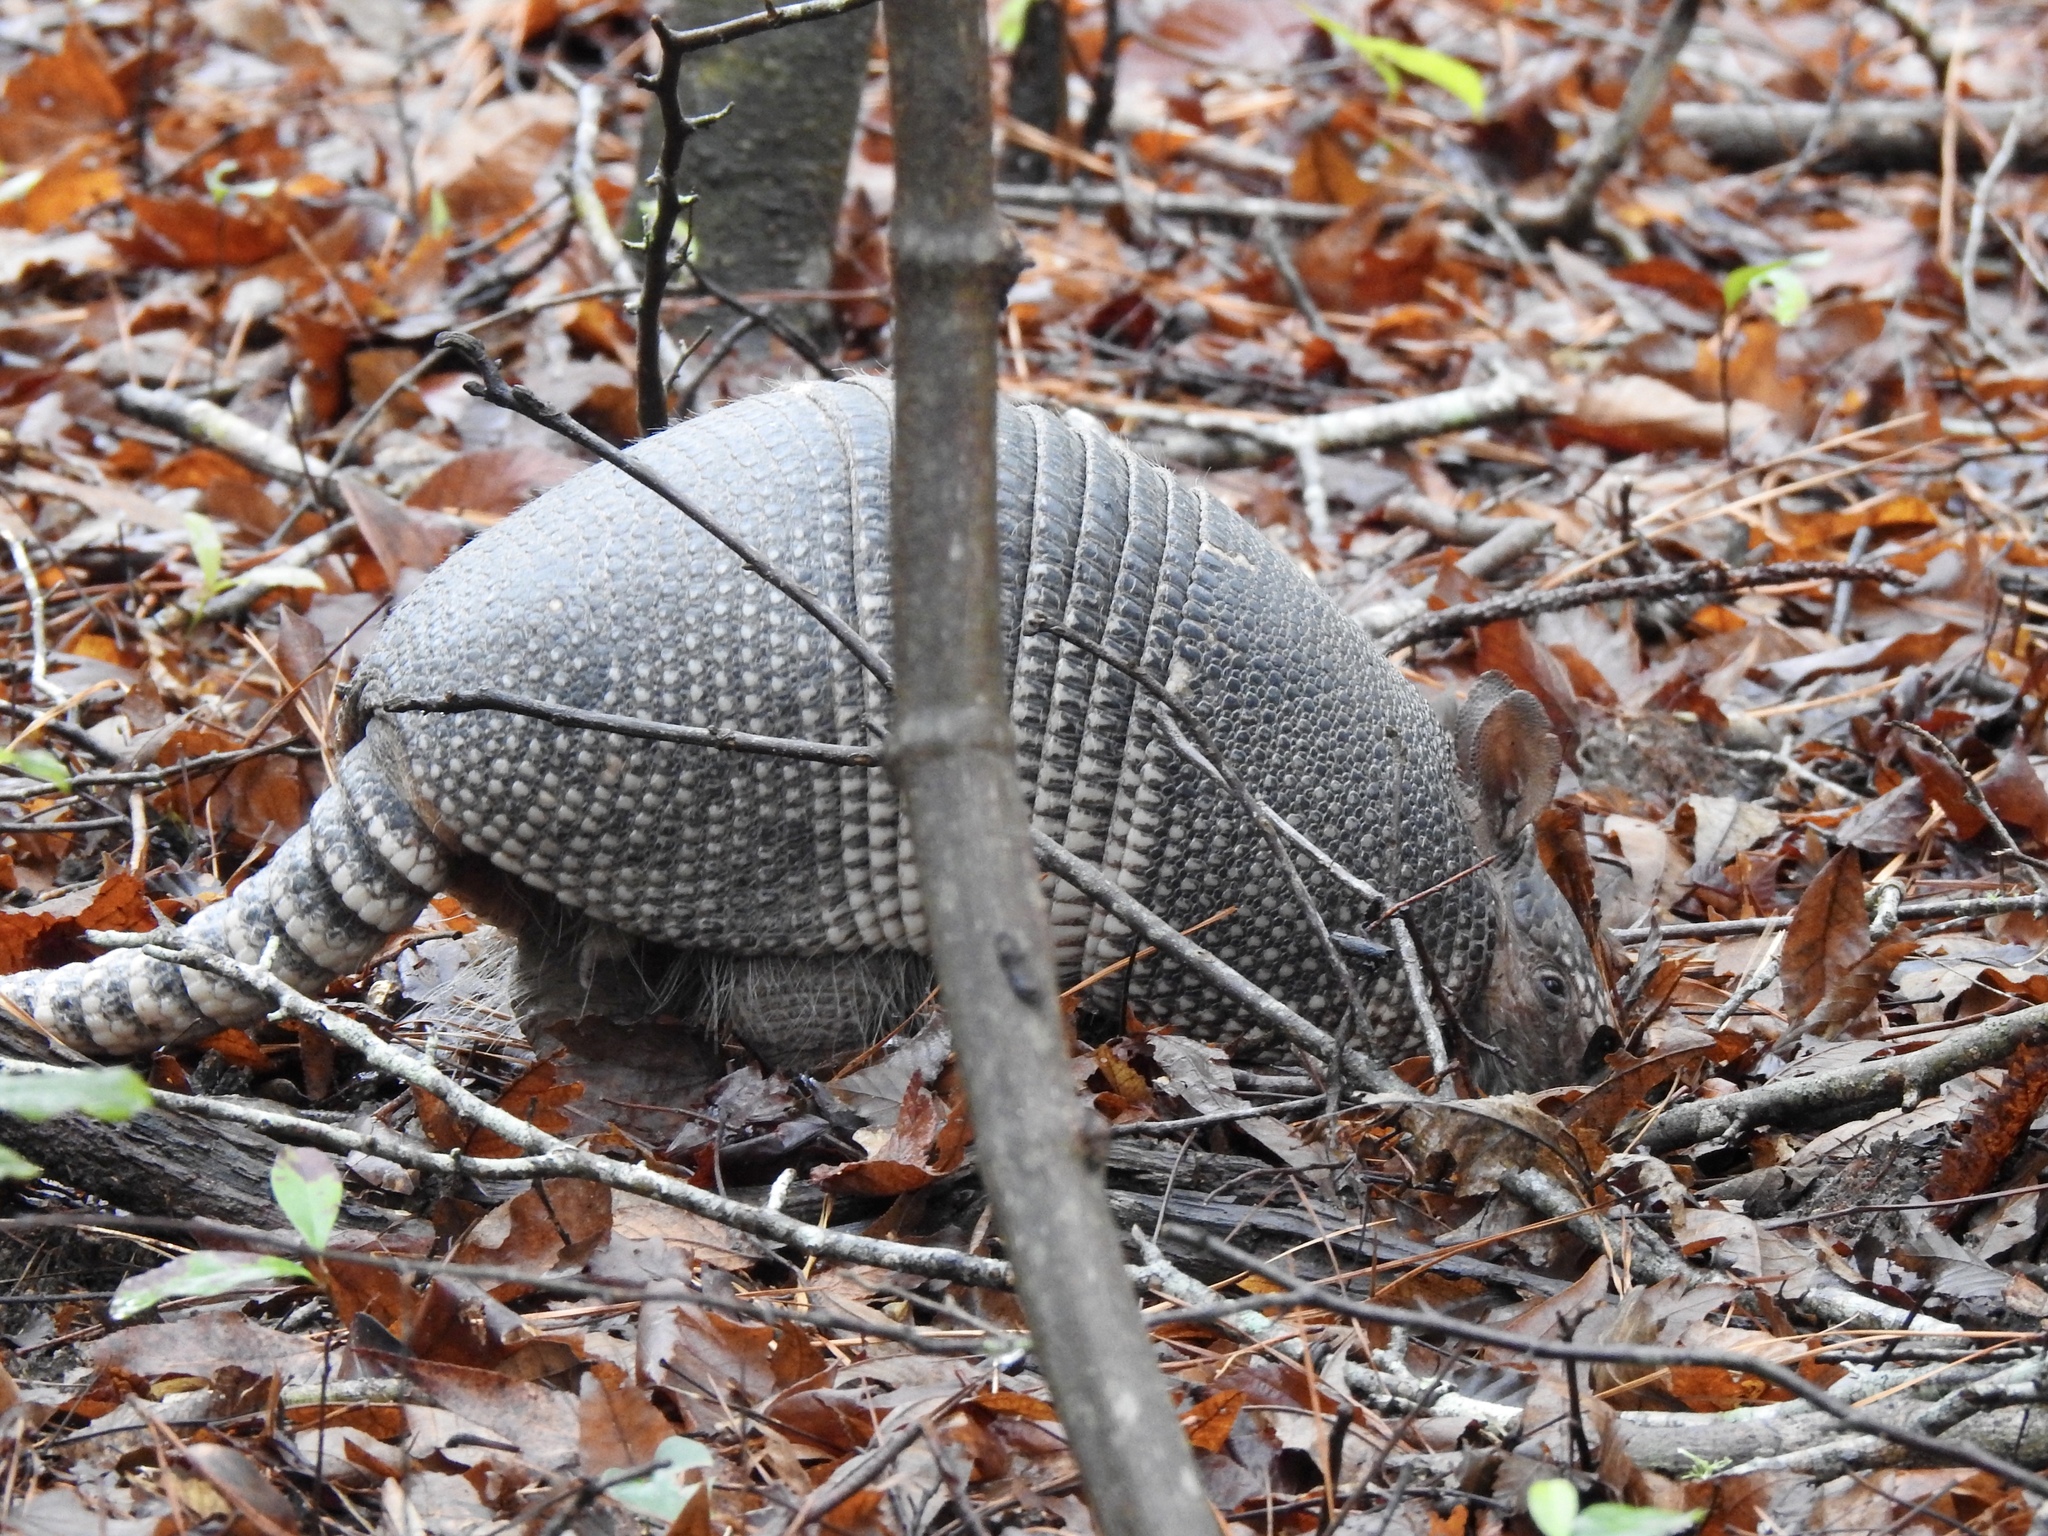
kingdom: Animalia
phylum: Chordata
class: Mammalia
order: Cingulata
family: Dasypodidae
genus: Dasypus
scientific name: Dasypus novemcinctus
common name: Nine-banded armadillo
